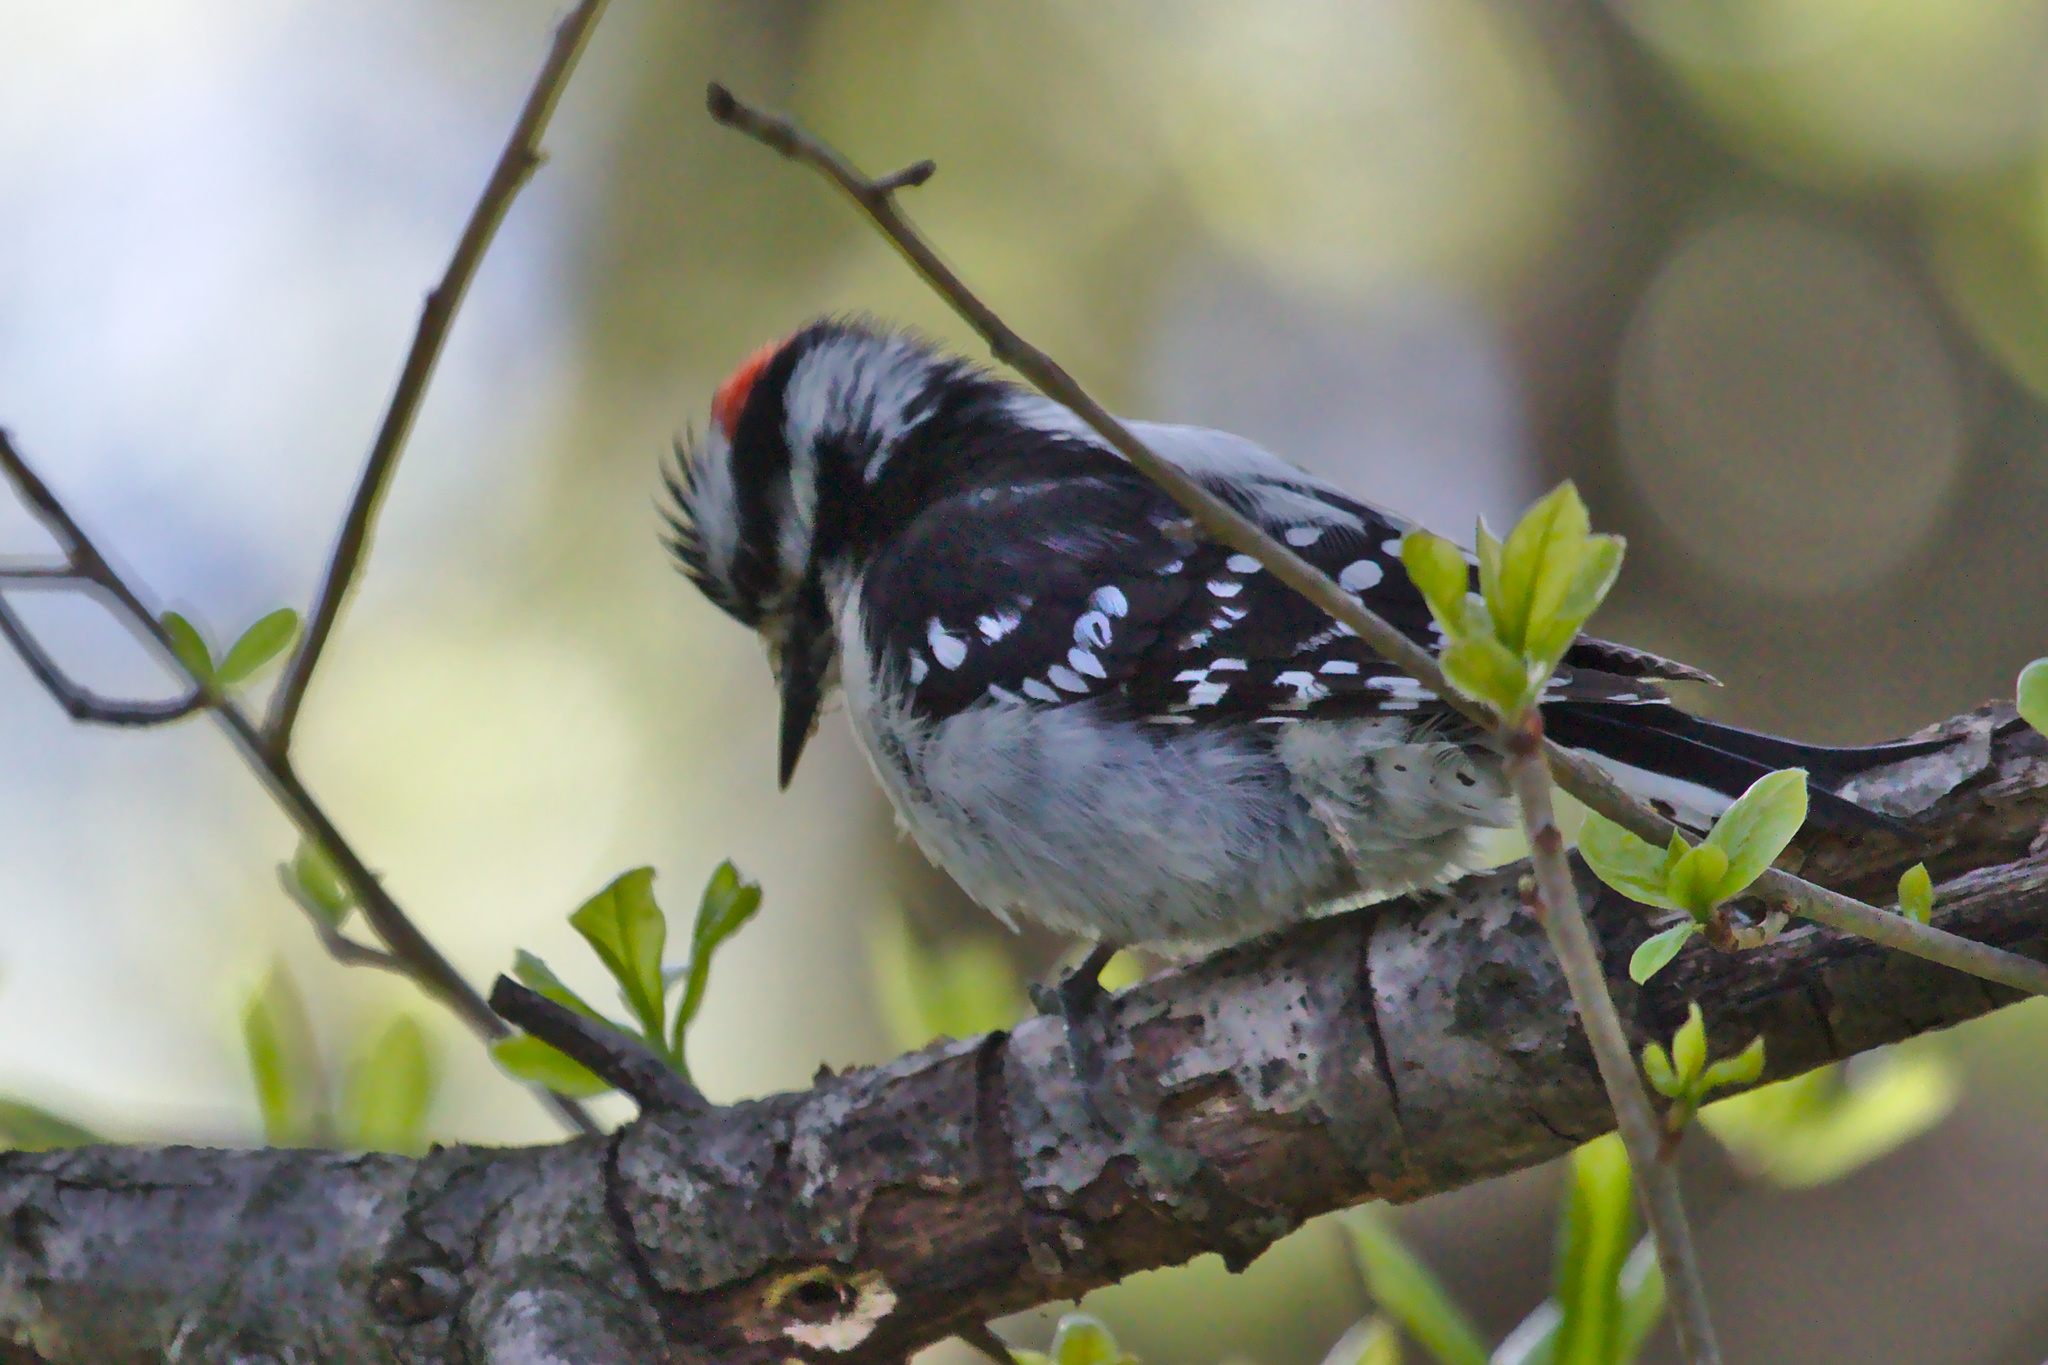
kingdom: Animalia
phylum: Chordata
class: Aves
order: Piciformes
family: Picidae
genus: Dryobates
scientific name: Dryobates pubescens
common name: Downy woodpecker
